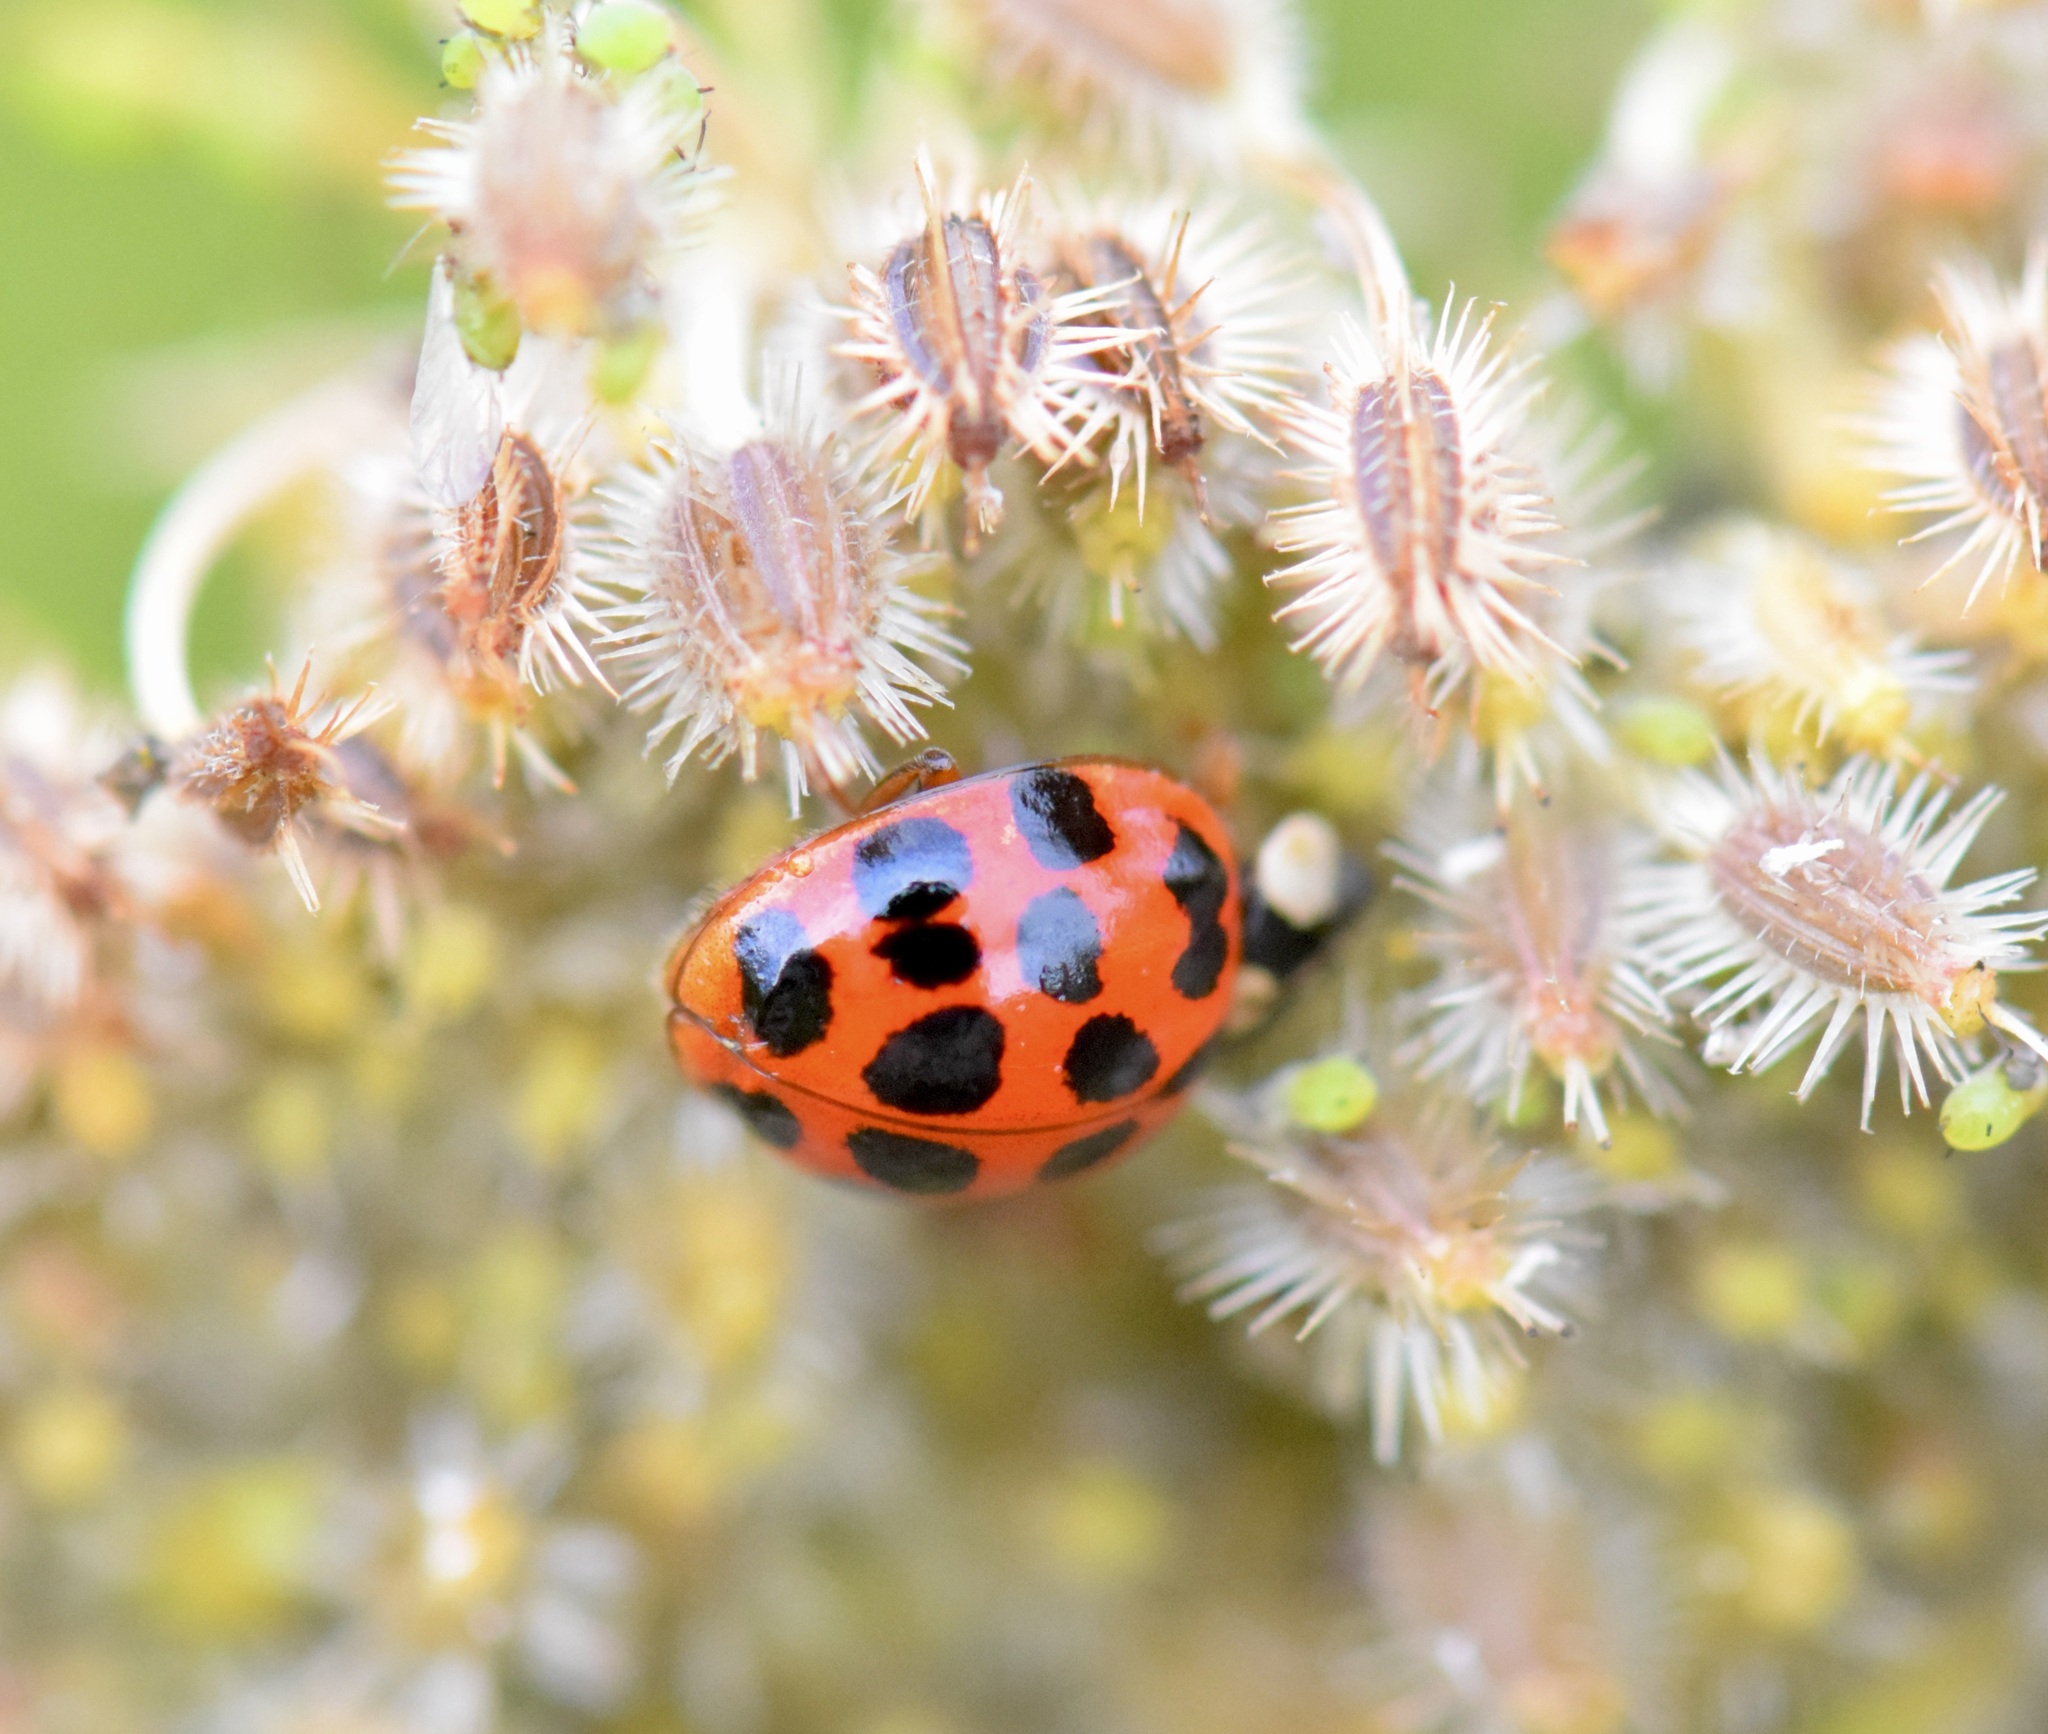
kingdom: Animalia
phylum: Arthropoda
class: Insecta
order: Coleoptera
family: Coccinellidae
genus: Harmonia
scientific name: Harmonia axyridis
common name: Harlequin ladybird
